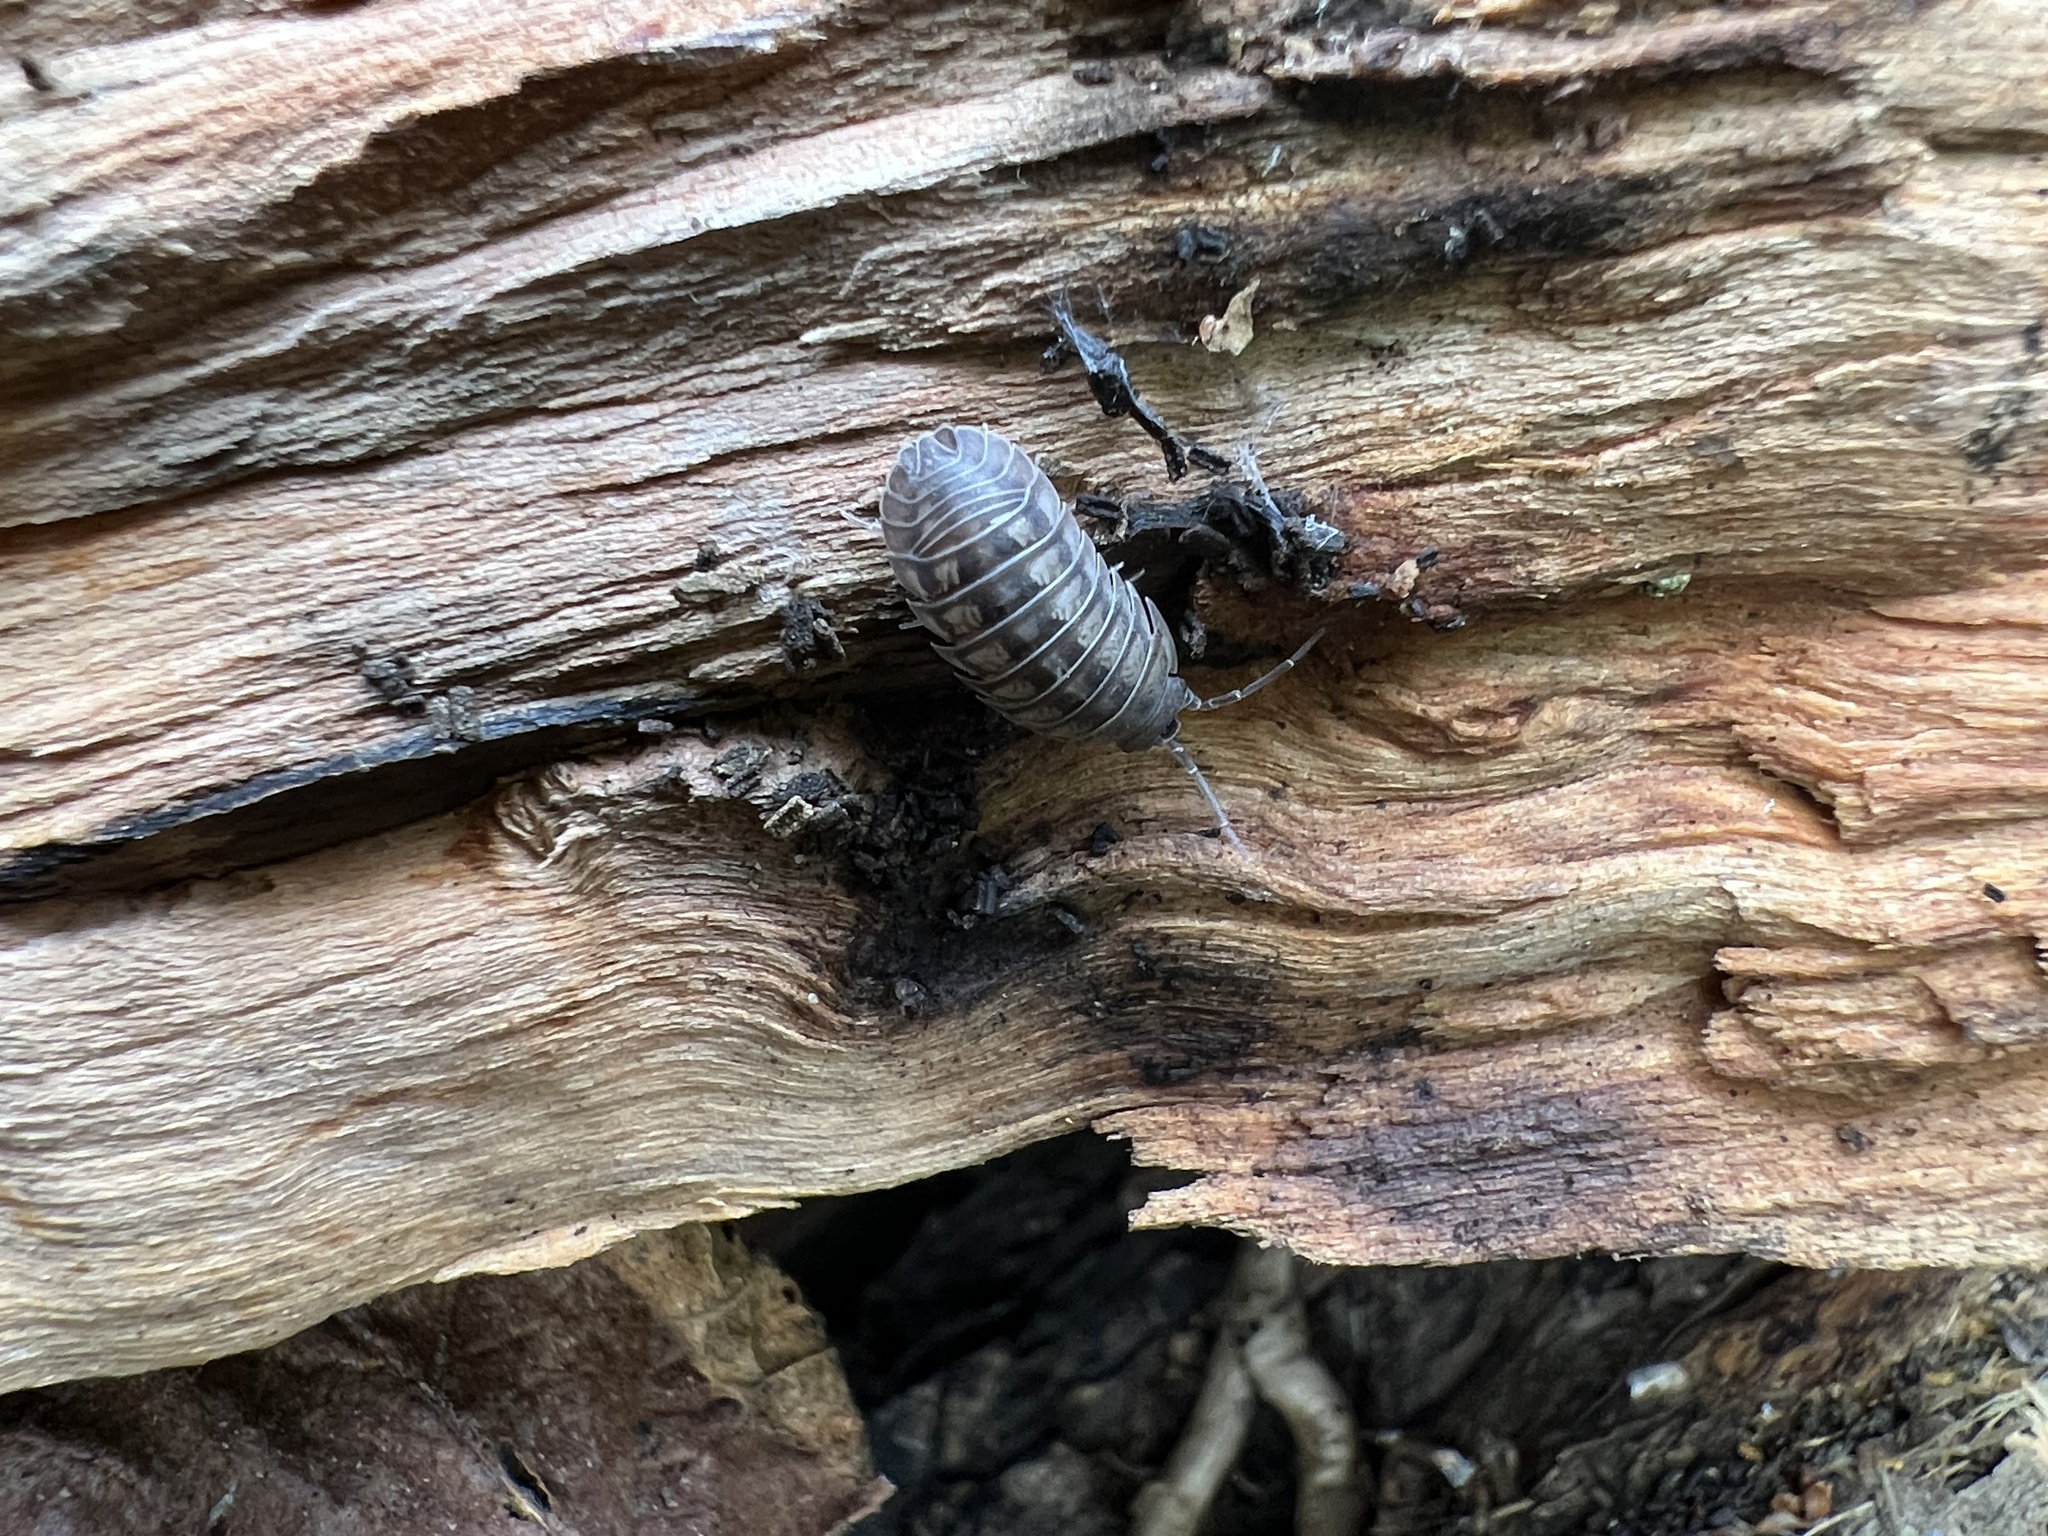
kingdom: Animalia
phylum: Arthropoda
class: Malacostraca
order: Isopoda
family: Armadillidiidae
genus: Armadillidium
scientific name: Armadillidium nasatum
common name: Isopod
